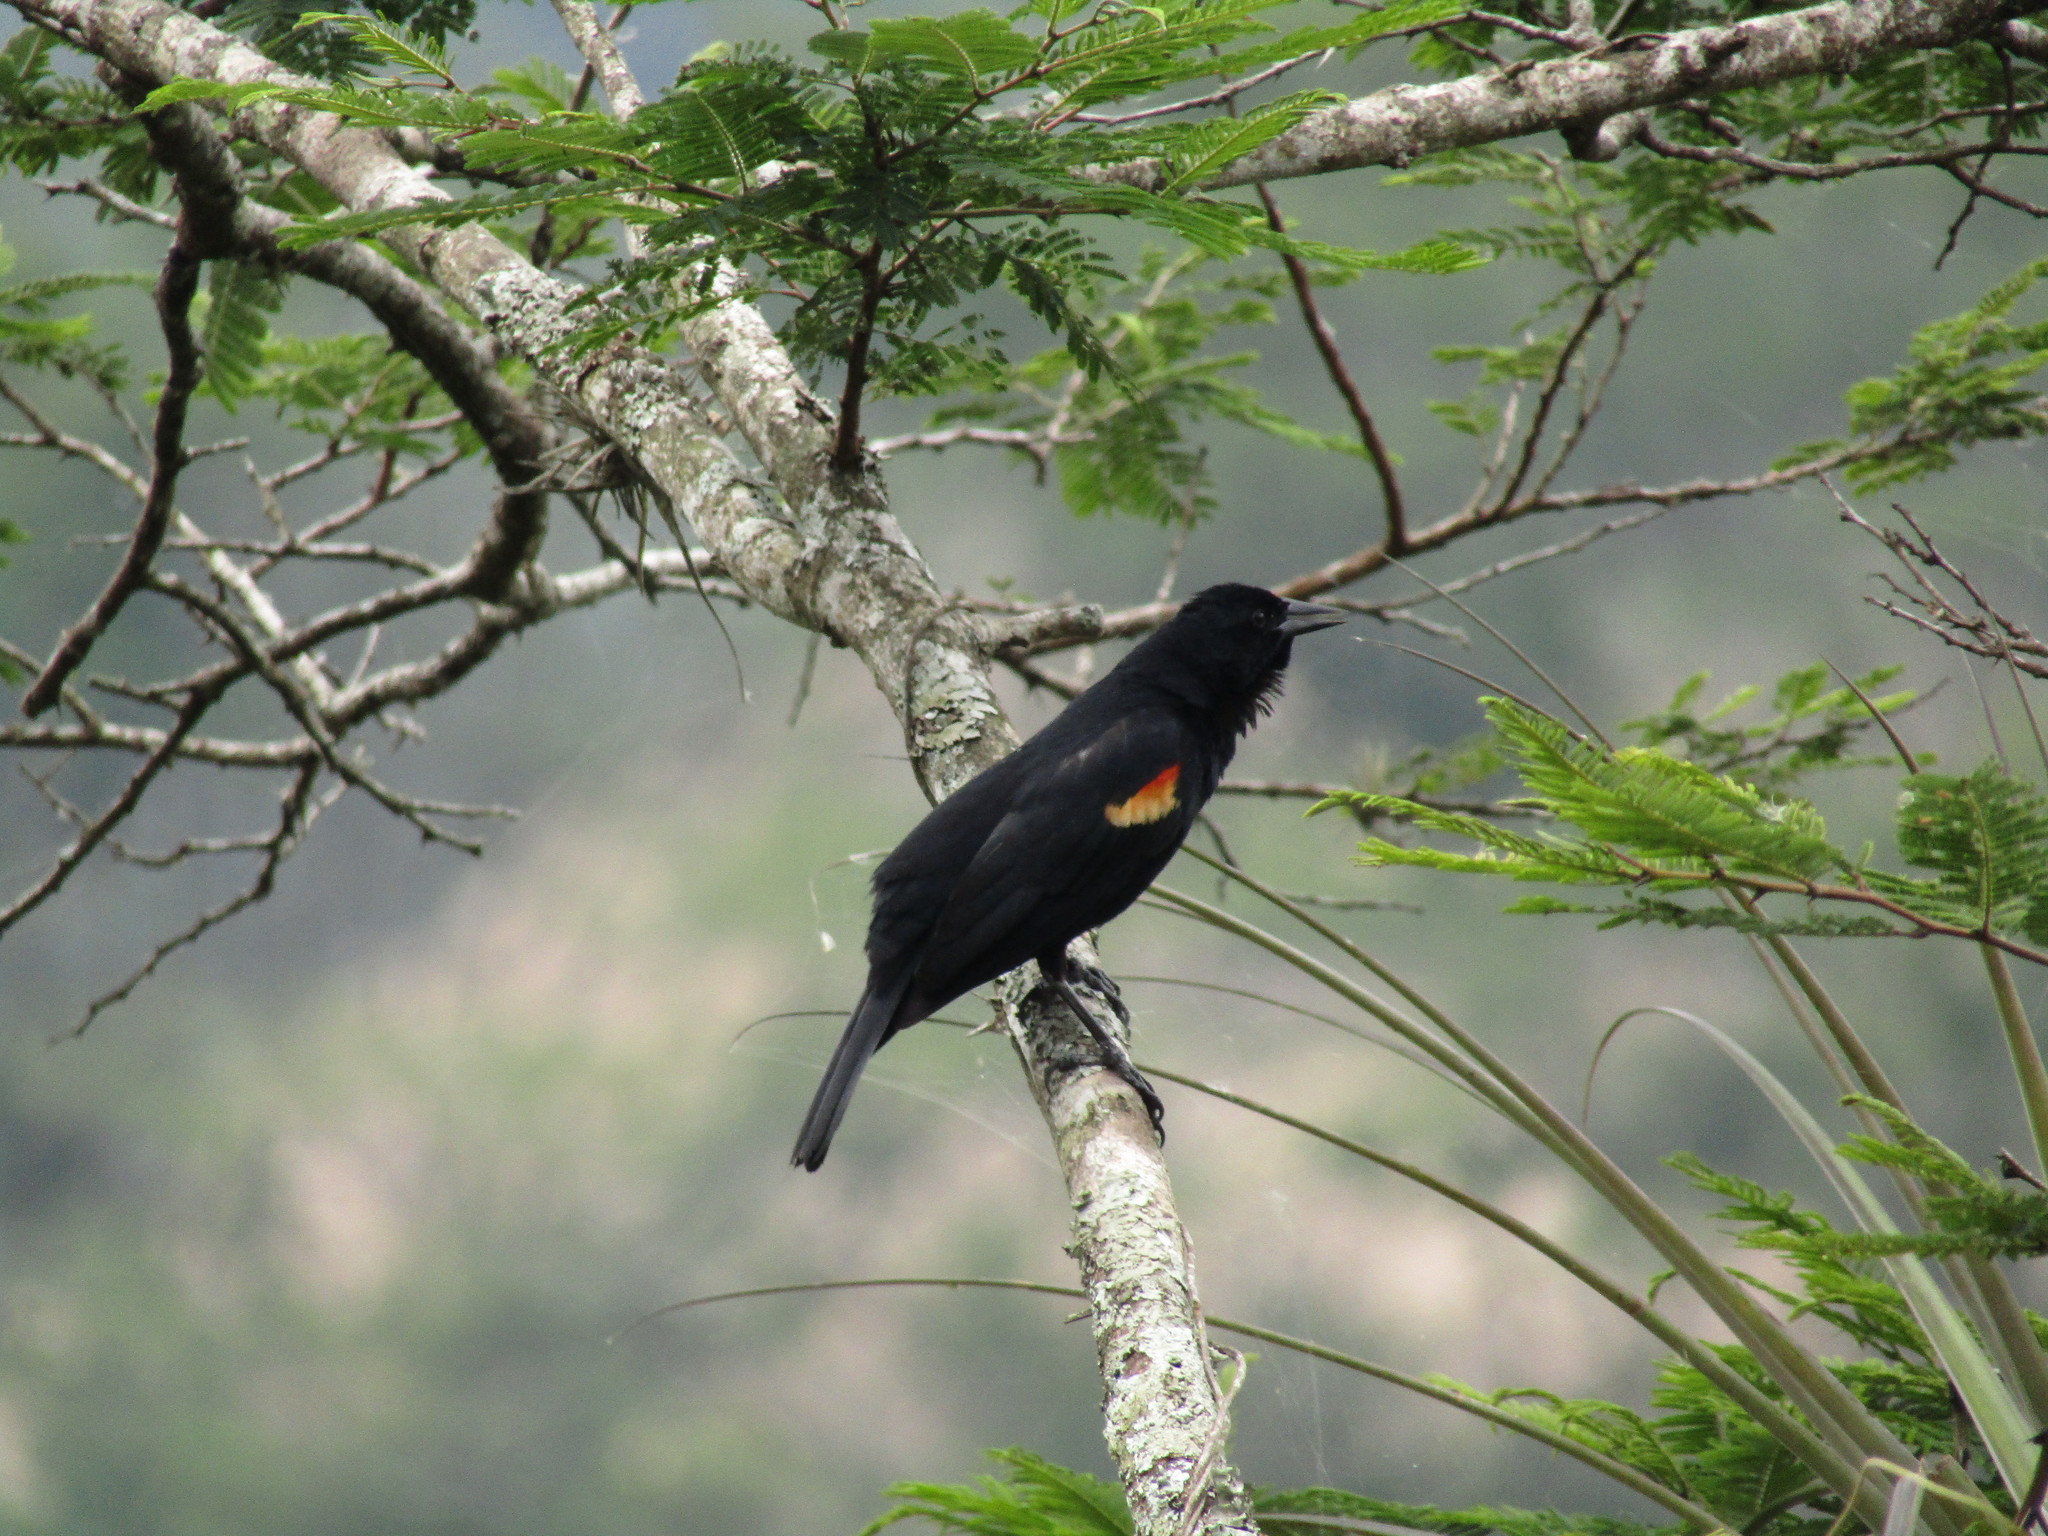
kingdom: Animalia
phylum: Chordata
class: Aves
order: Passeriformes
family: Icteridae
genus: Agelaius
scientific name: Agelaius phoeniceus
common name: Red-winged blackbird
